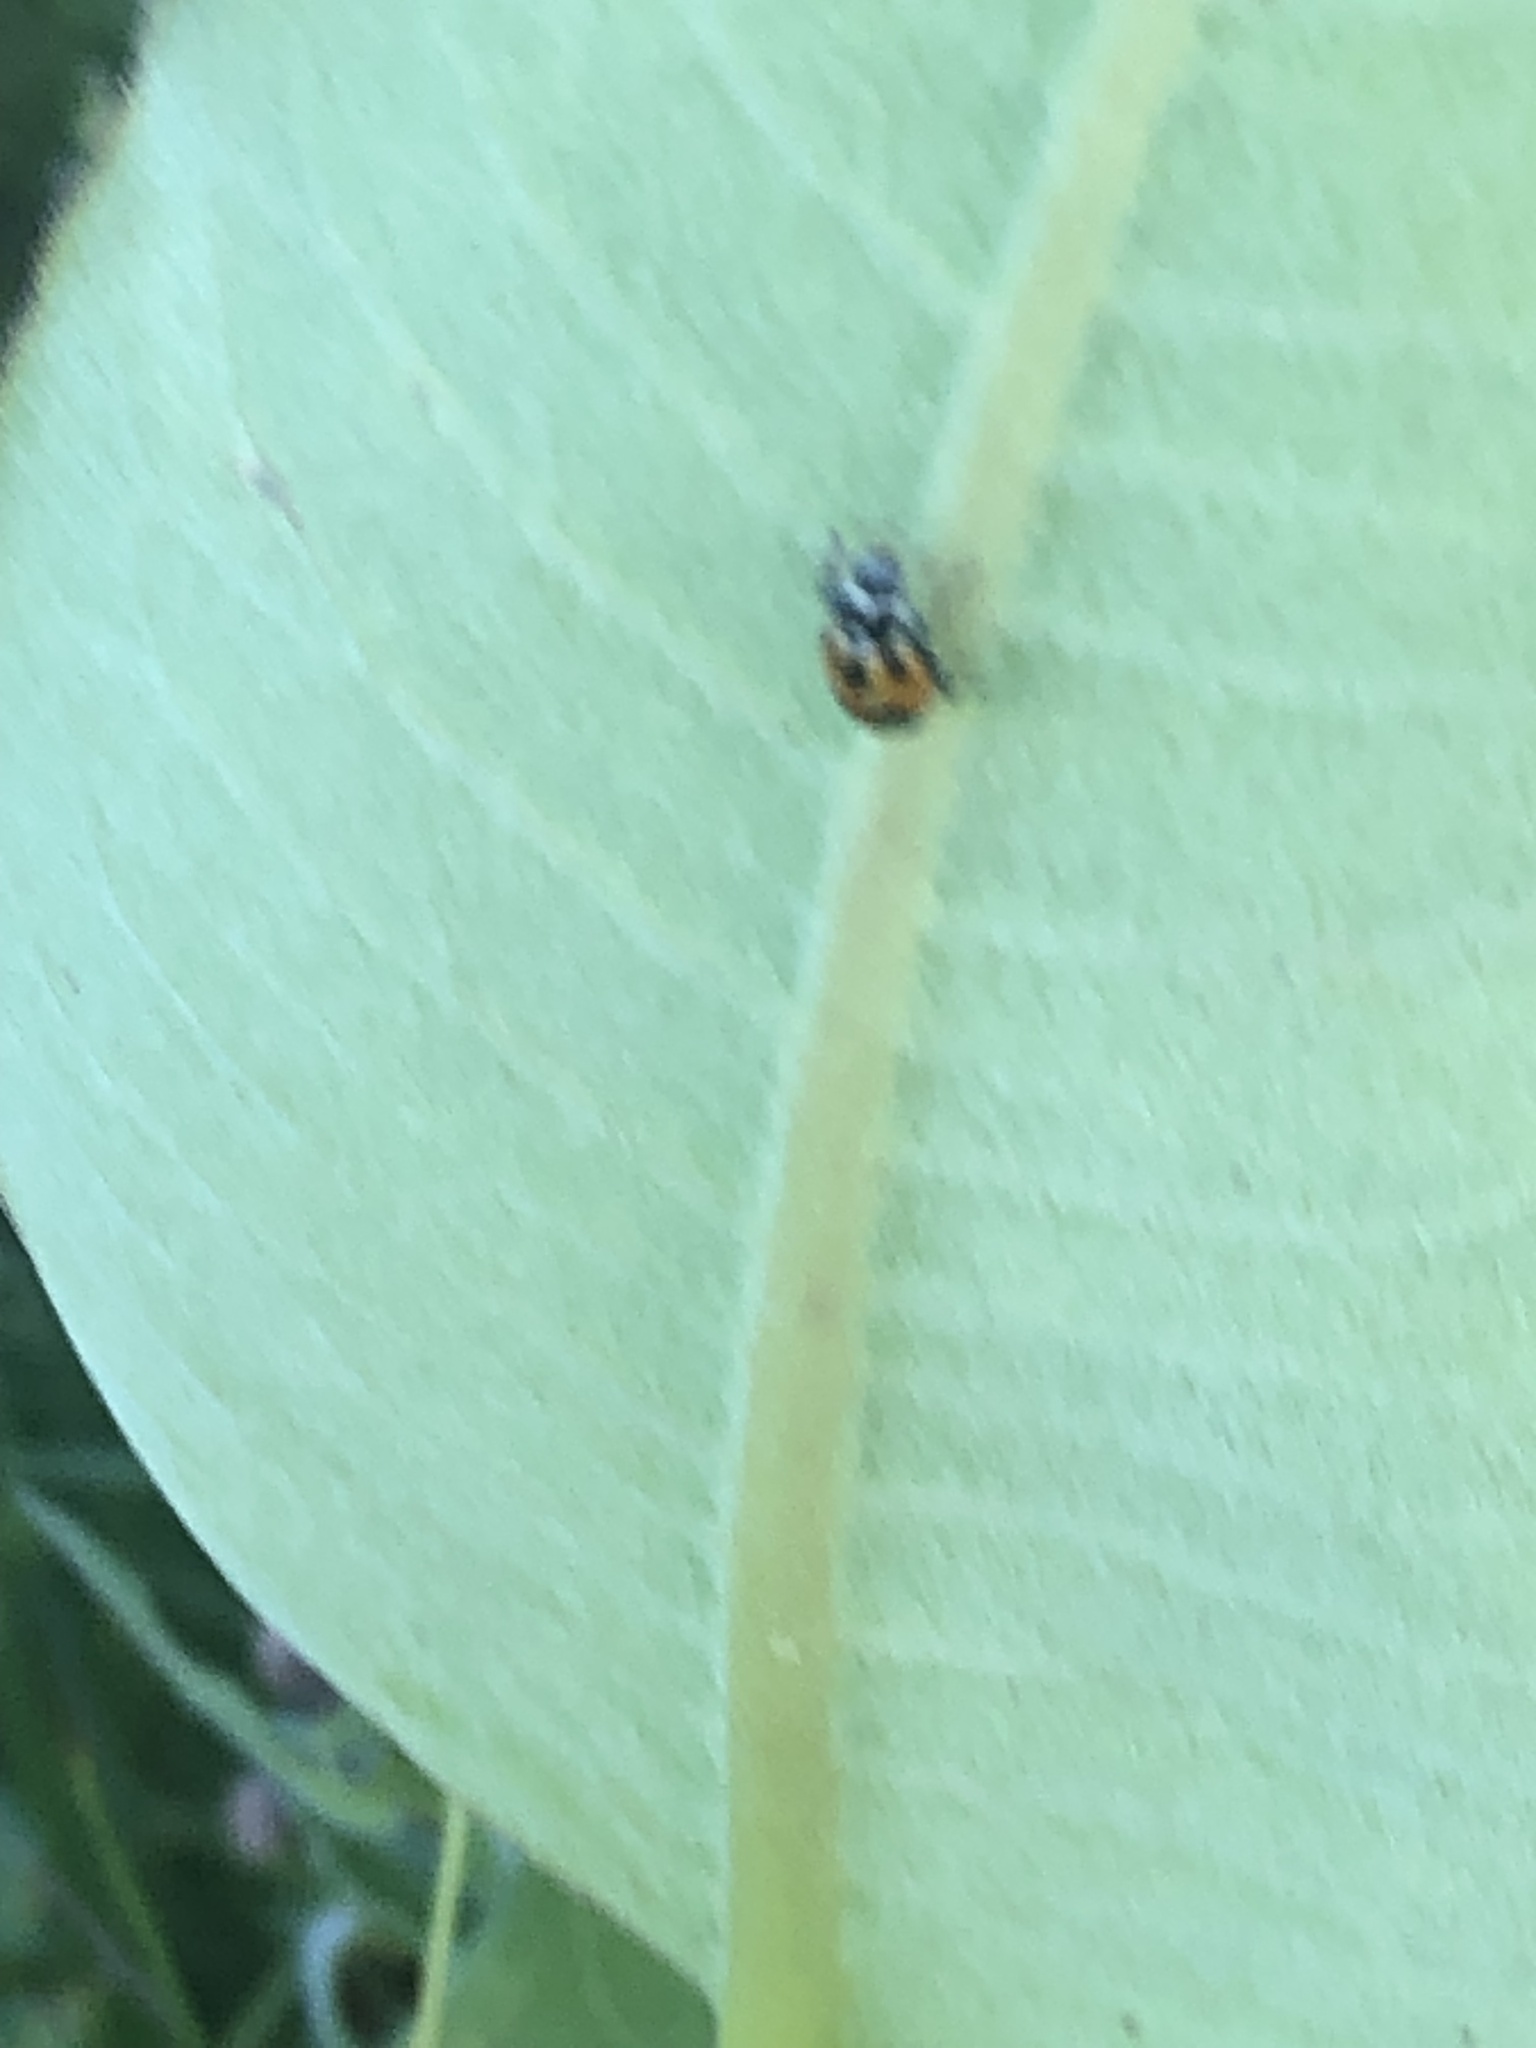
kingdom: Animalia
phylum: Arthropoda
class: Insecta
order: Coleoptera
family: Coccinellidae
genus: Hippodamia
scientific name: Hippodamia parenthesis
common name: Parenthesis lady beetle
